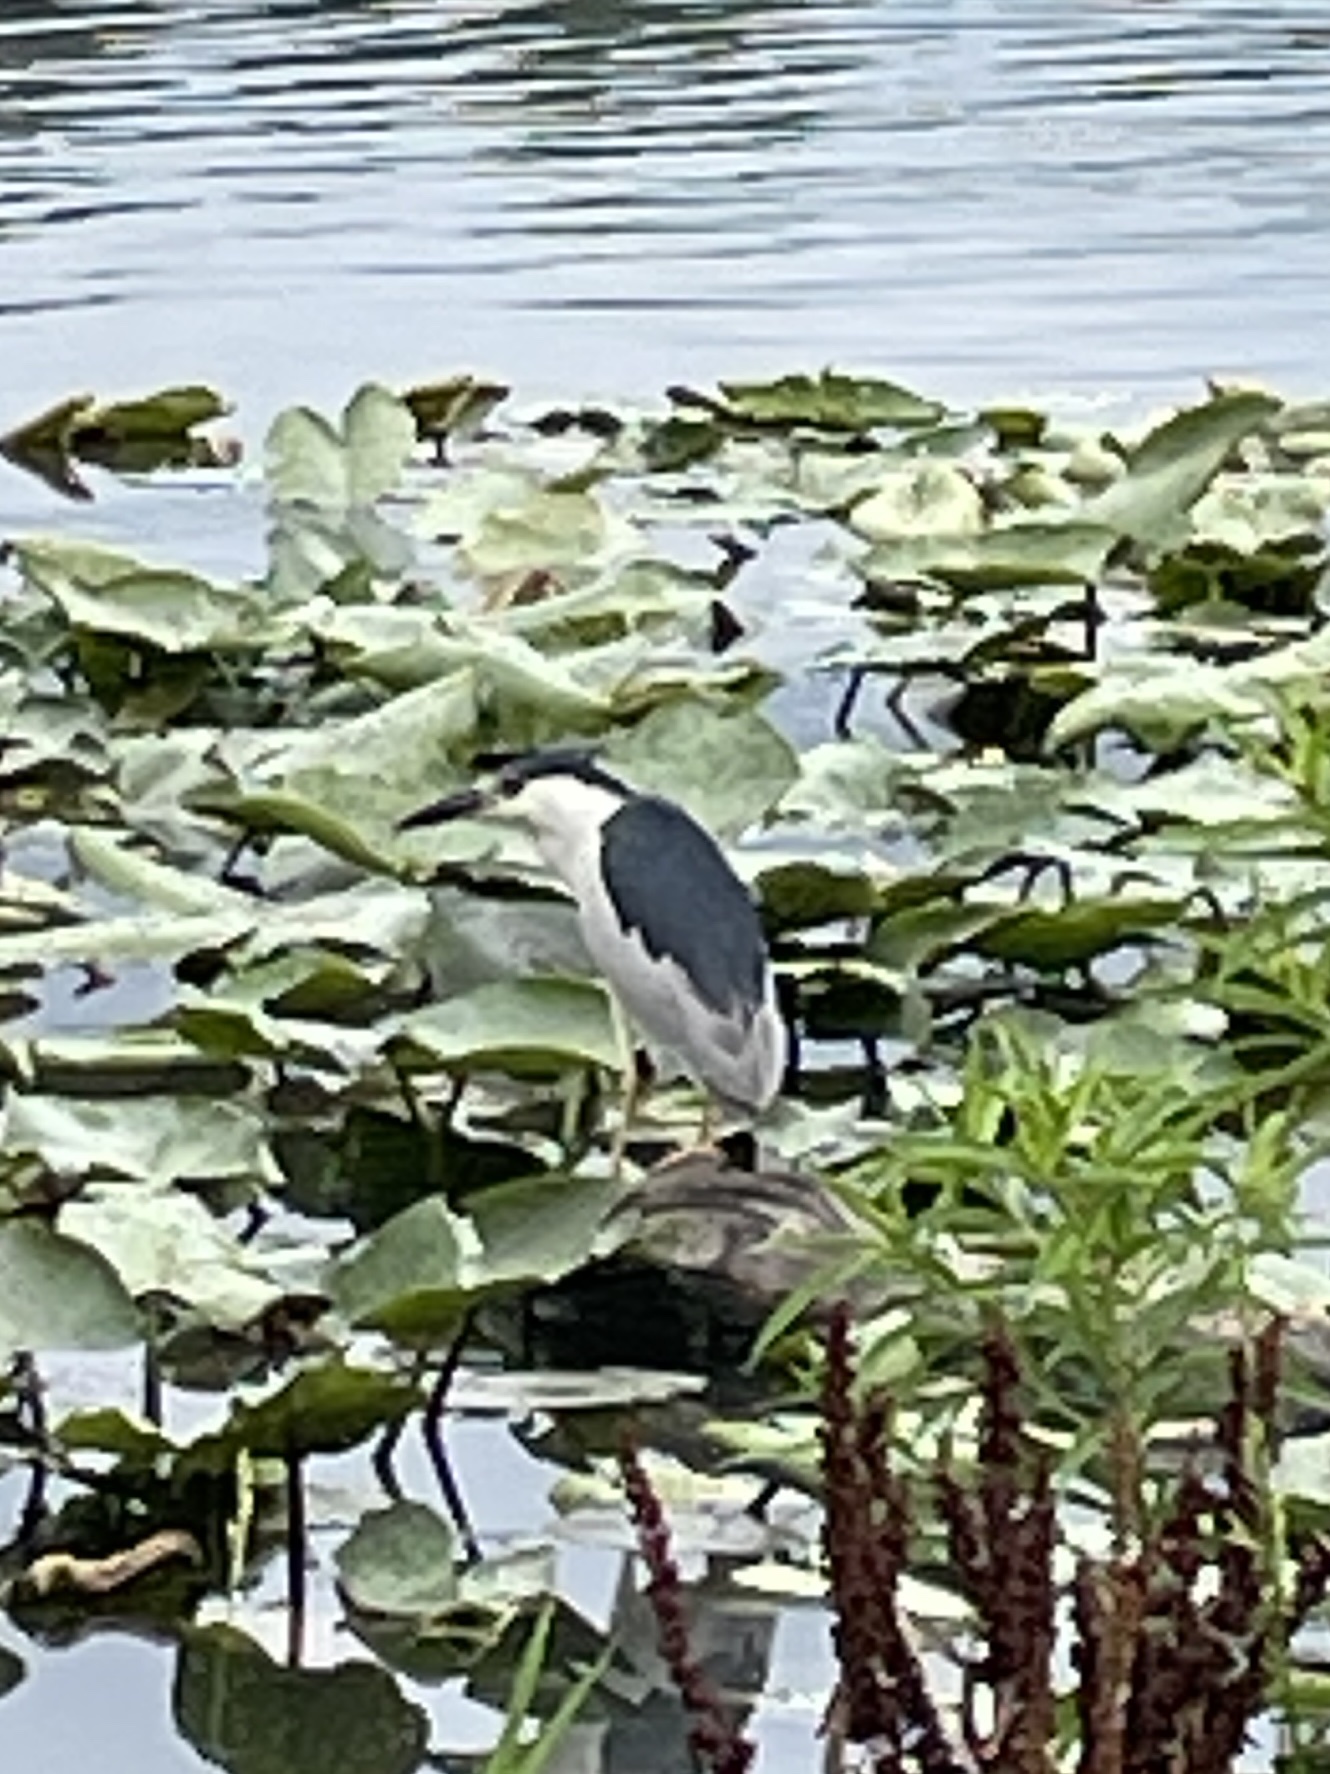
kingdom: Animalia
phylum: Chordata
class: Aves
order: Pelecaniformes
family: Ardeidae
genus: Nycticorax
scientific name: Nycticorax nycticorax
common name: Black-crowned night heron
